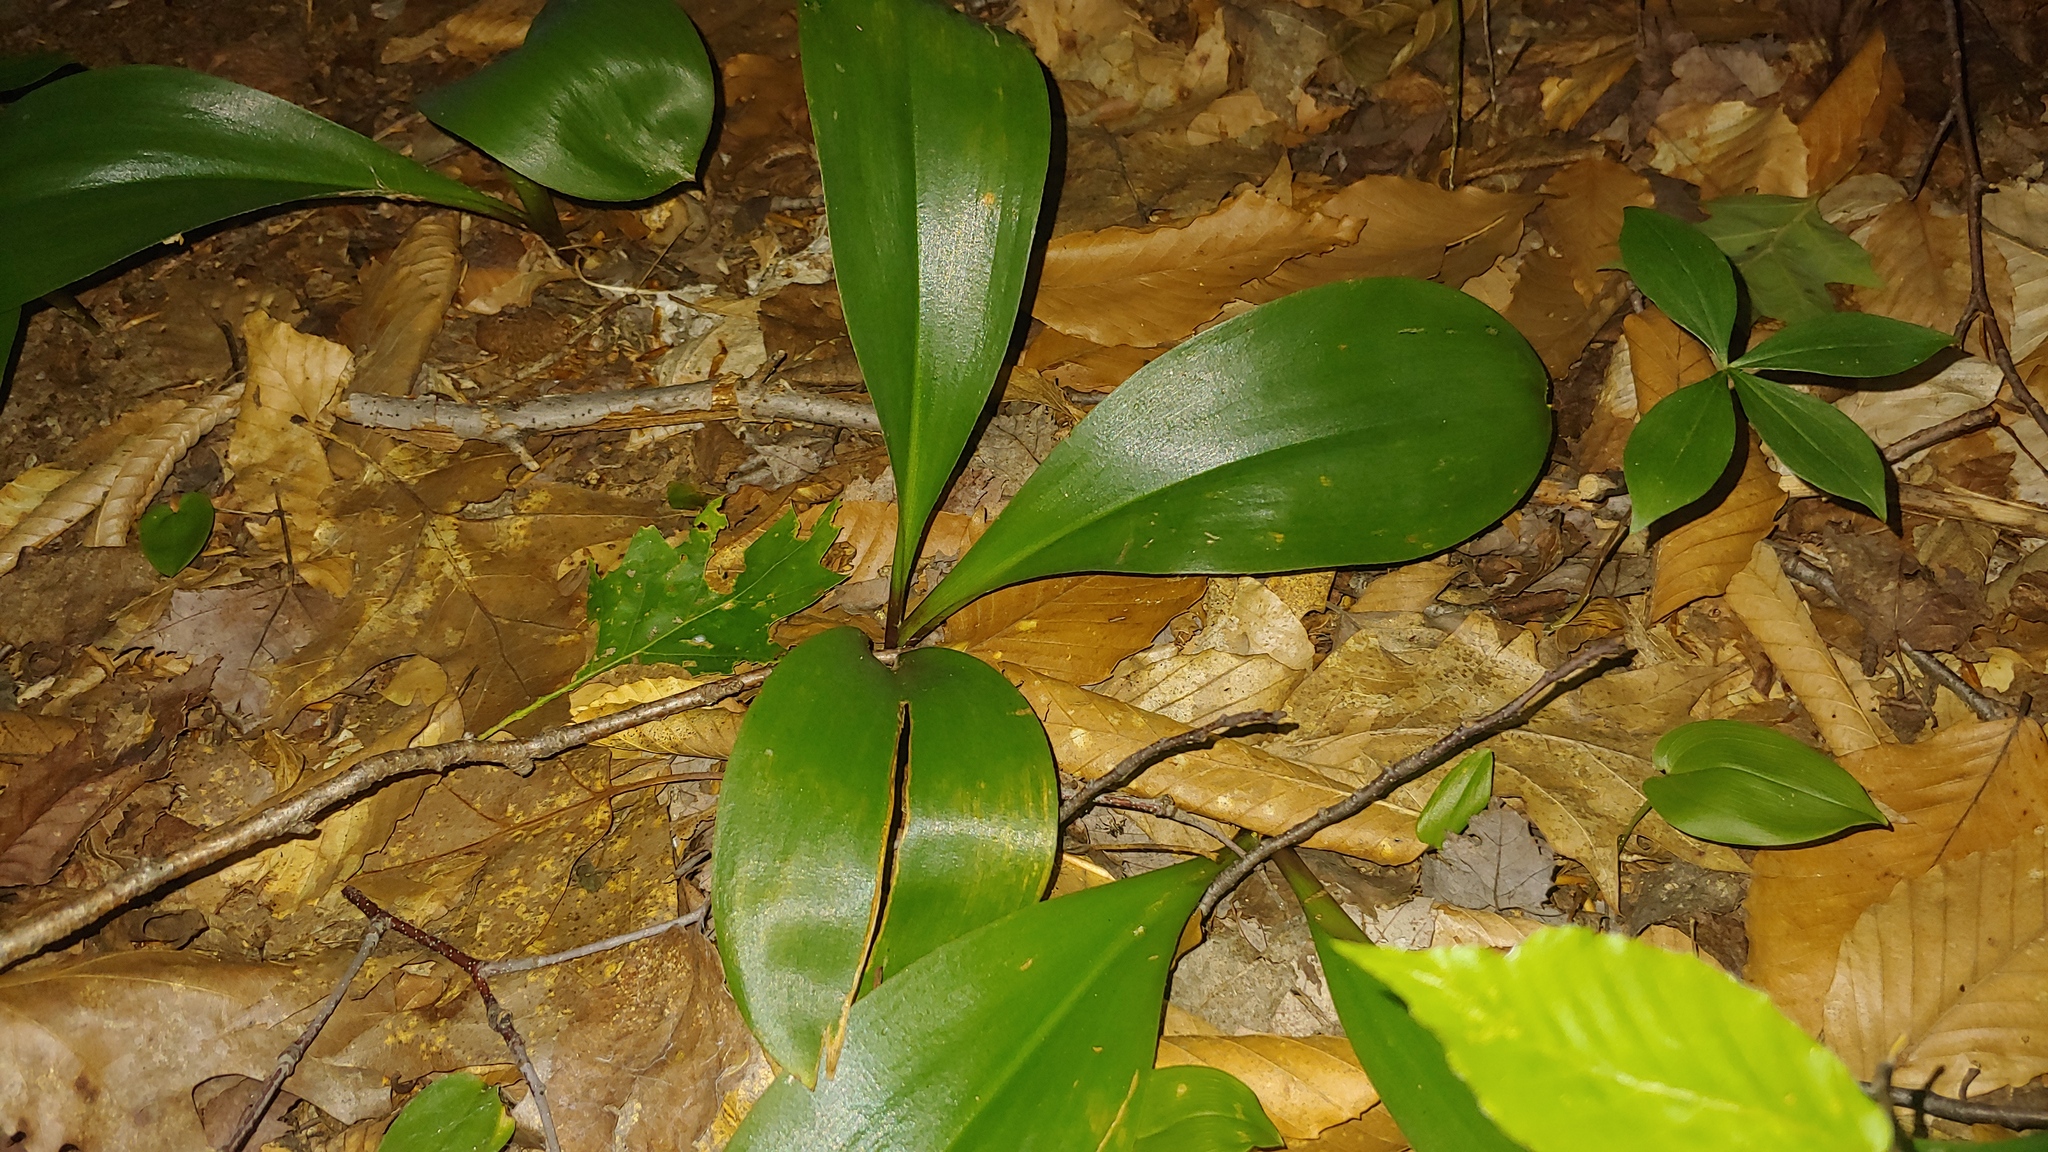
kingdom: Plantae
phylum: Tracheophyta
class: Liliopsida
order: Liliales
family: Liliaceae
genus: Clintonia
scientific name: Clintonia borealis
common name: Yellow clintonia
